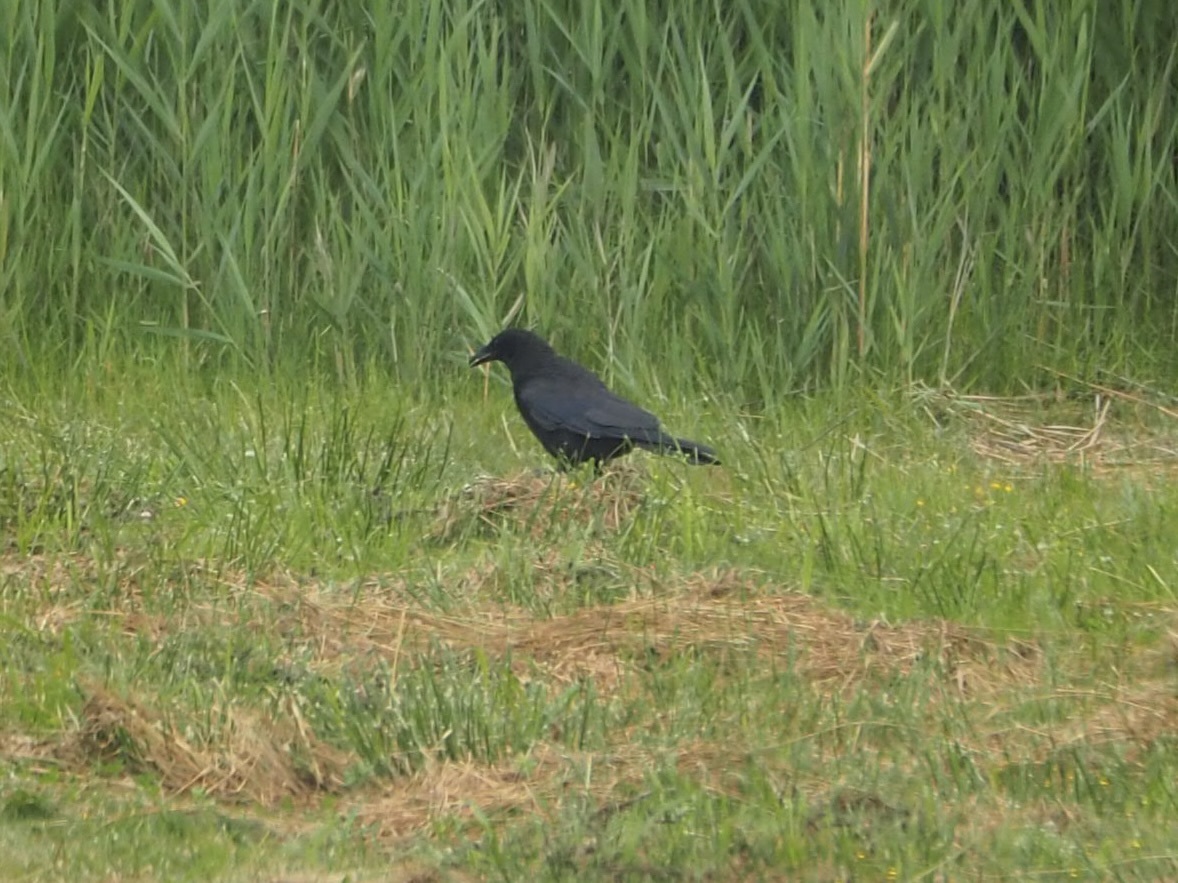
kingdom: Animalia
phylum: Chordata
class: Aves
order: Passeriformes
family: Corvidae
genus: Corvus
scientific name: Corvus corone
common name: Carrion crow
